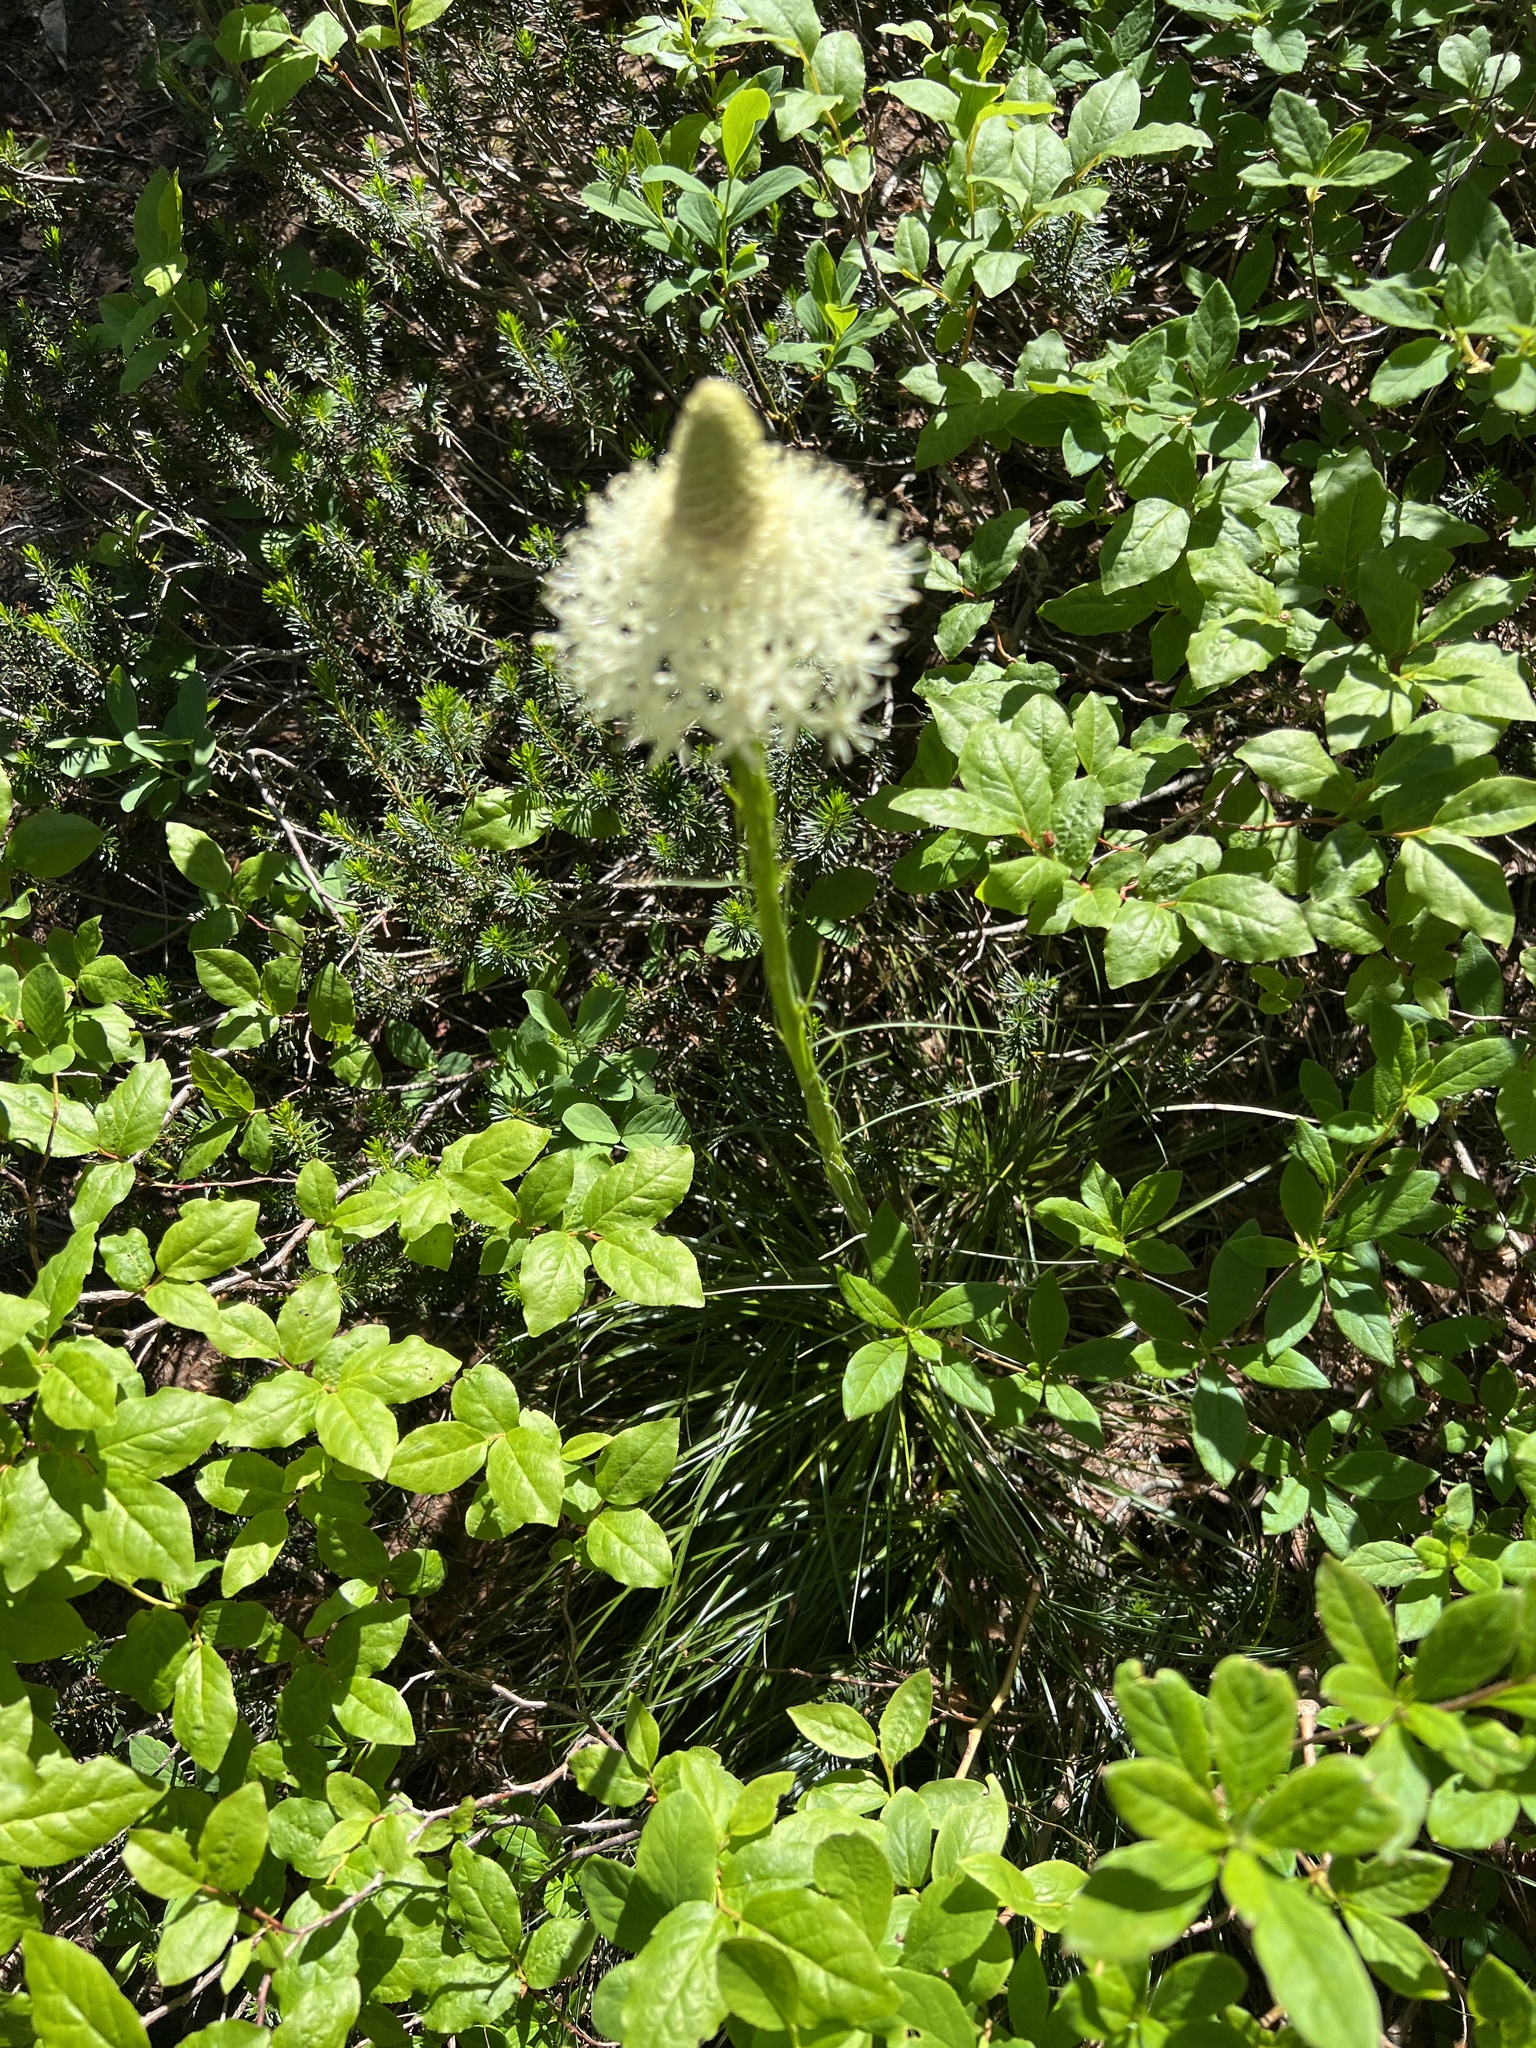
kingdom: Plantae
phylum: Tracheophyta
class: Liliopsida
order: Liliales
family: Melanthiaceae
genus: Xerophyllum
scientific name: Xerophyllum tenax
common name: Bear-grass
